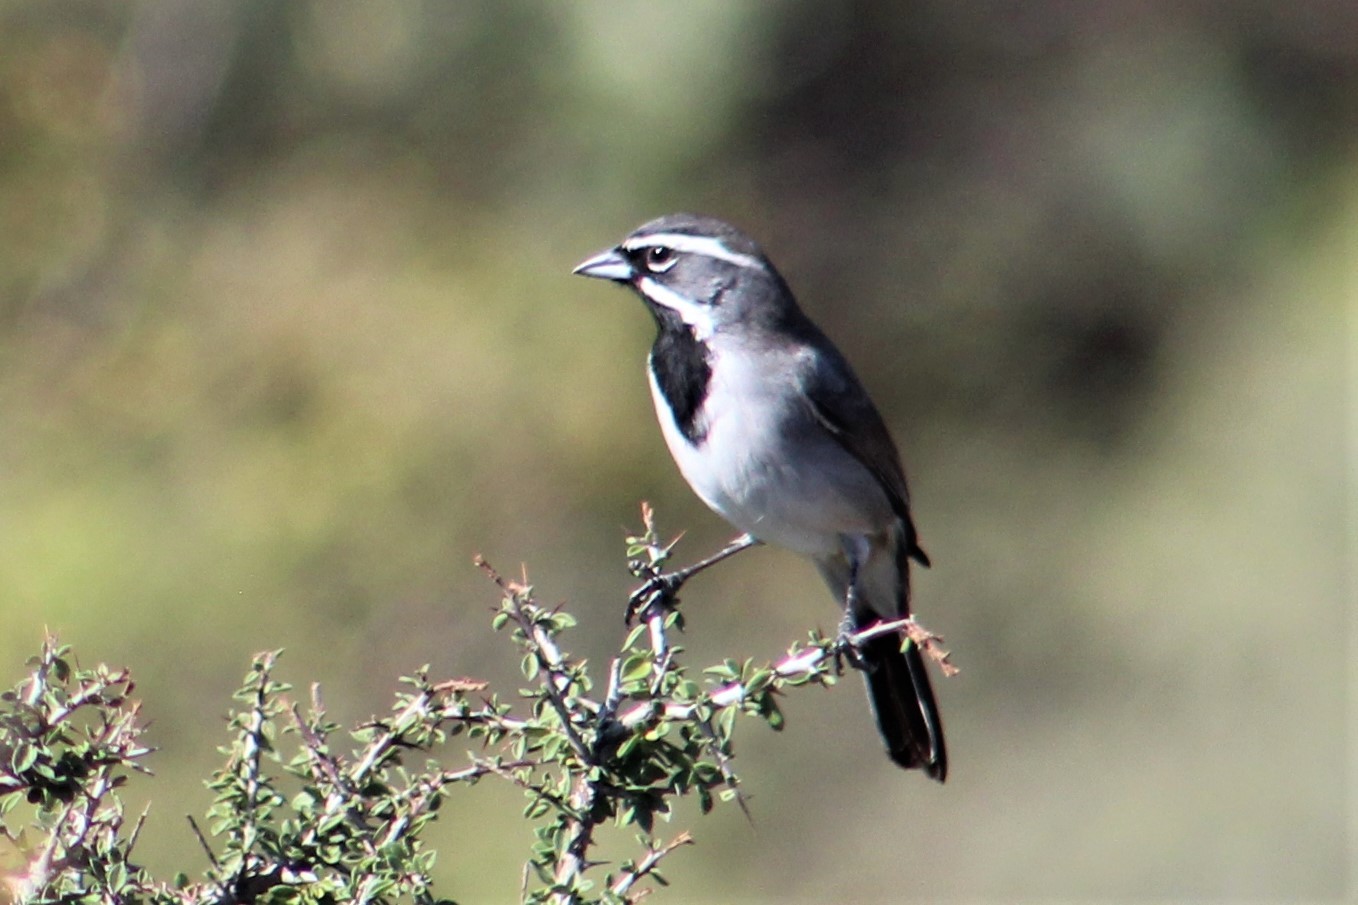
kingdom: Animalia
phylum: Chordata
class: Aves
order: Passeriformes
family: Passerellidae
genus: Amphispiza
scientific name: Amphispiza bilineata
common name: Black-throated sparrow
